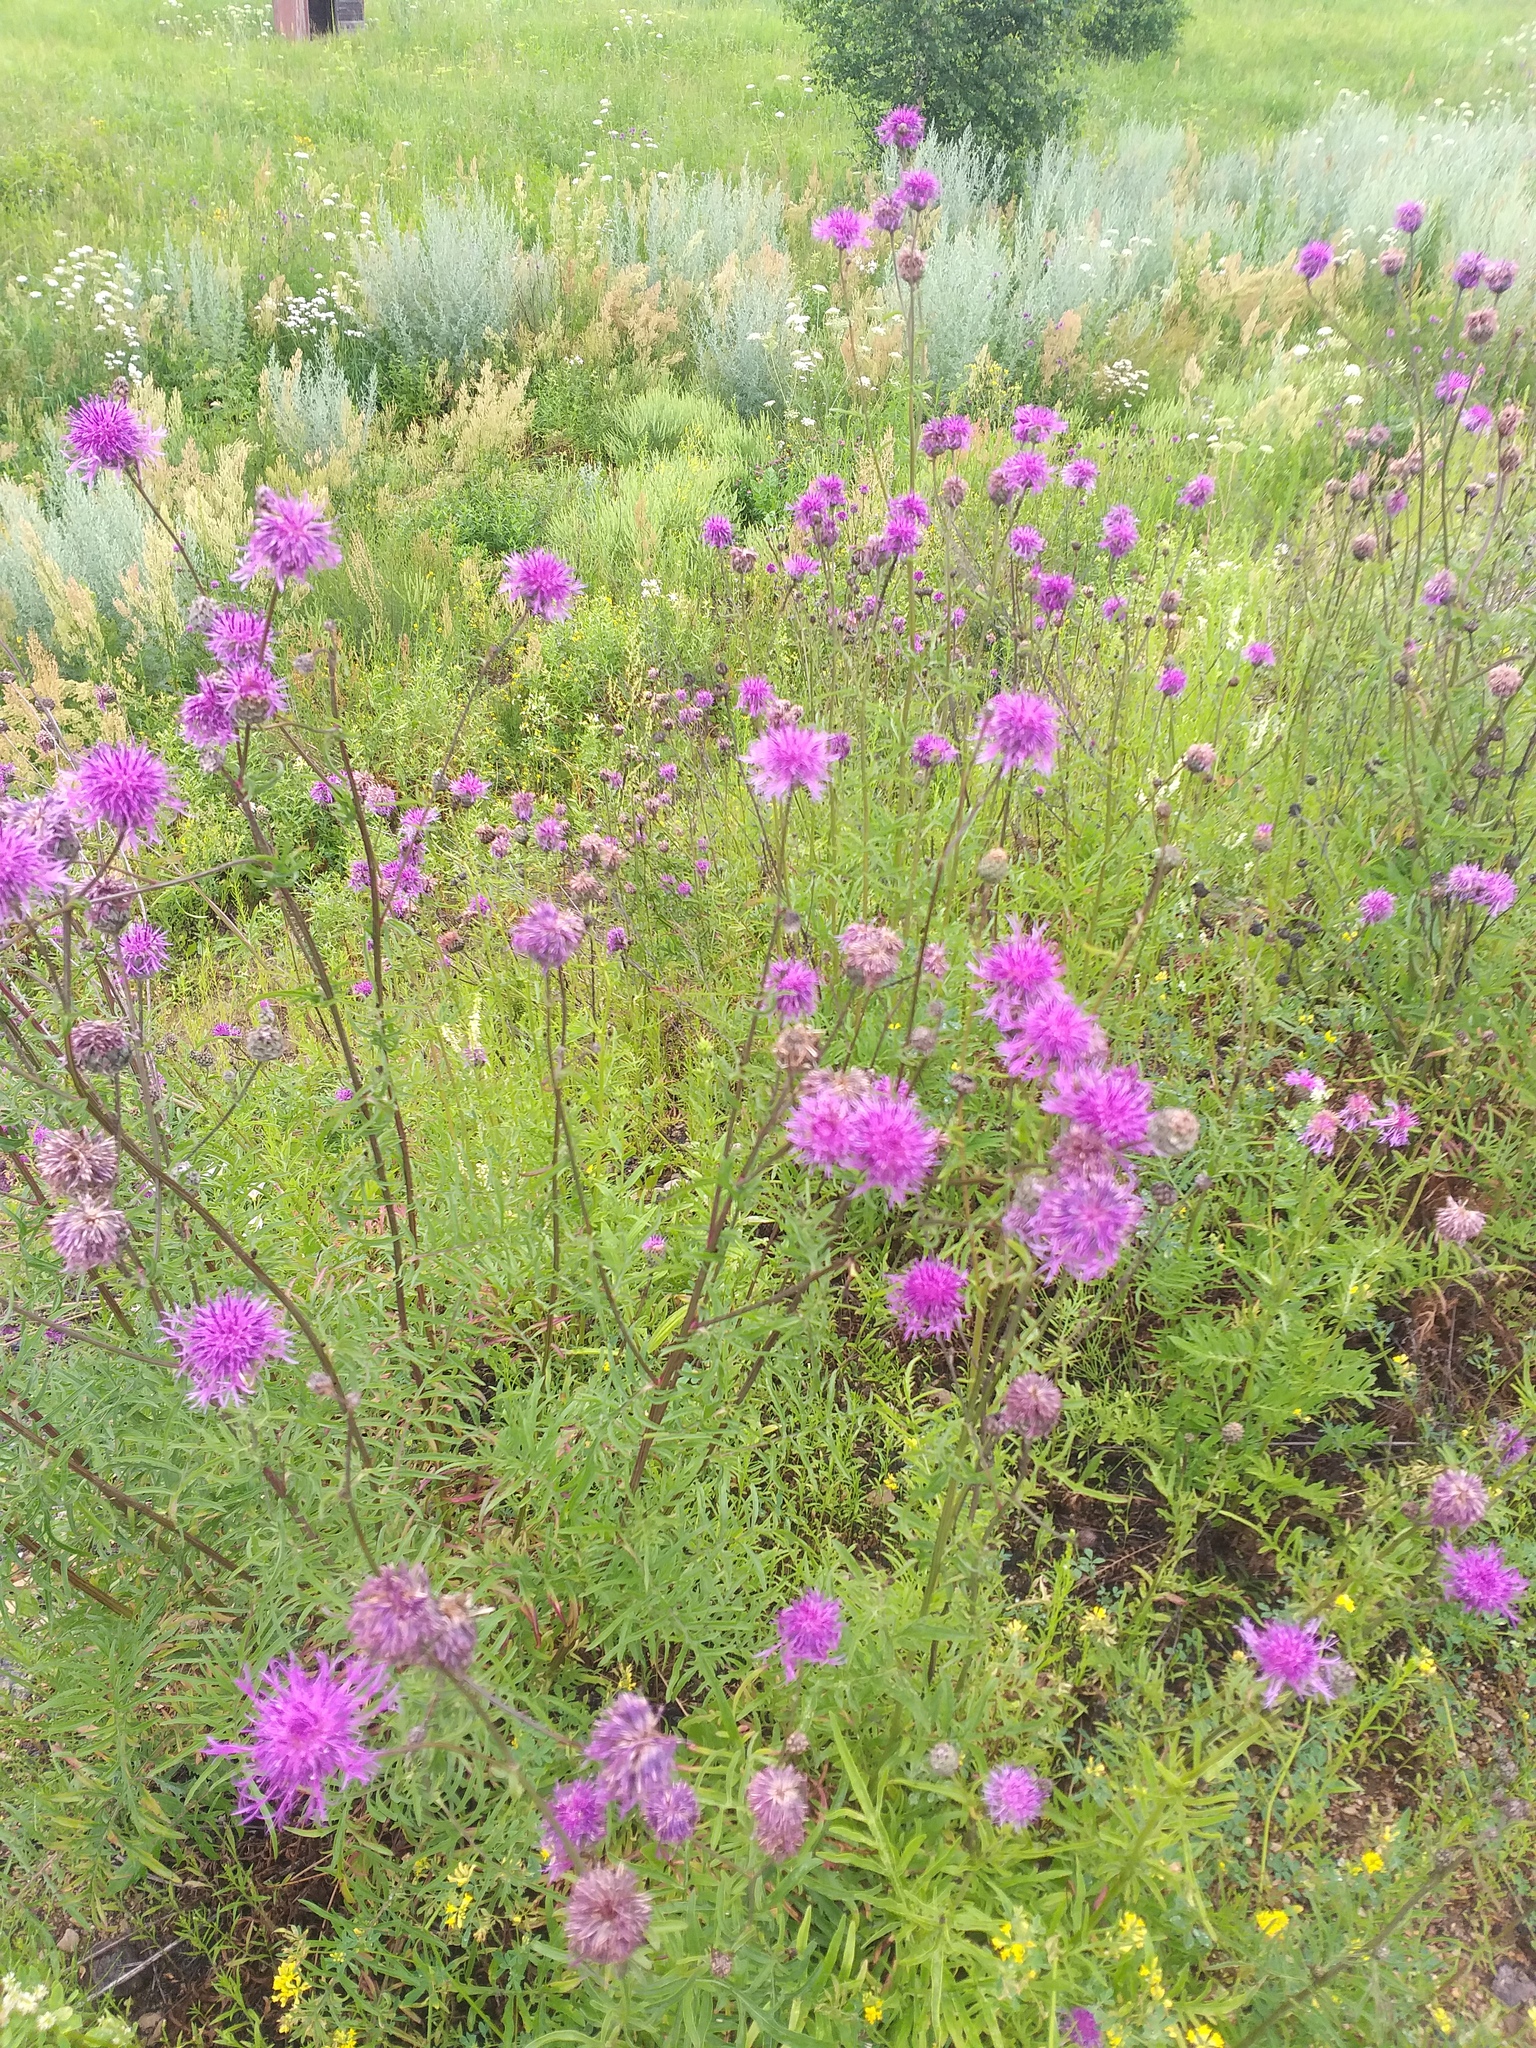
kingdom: Plantae
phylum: Tracheophyta
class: Magnoliopsida
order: Asterales
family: Asteraceae
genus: Centaurea
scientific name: Centaurea scabiosa
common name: Greater knapweed
